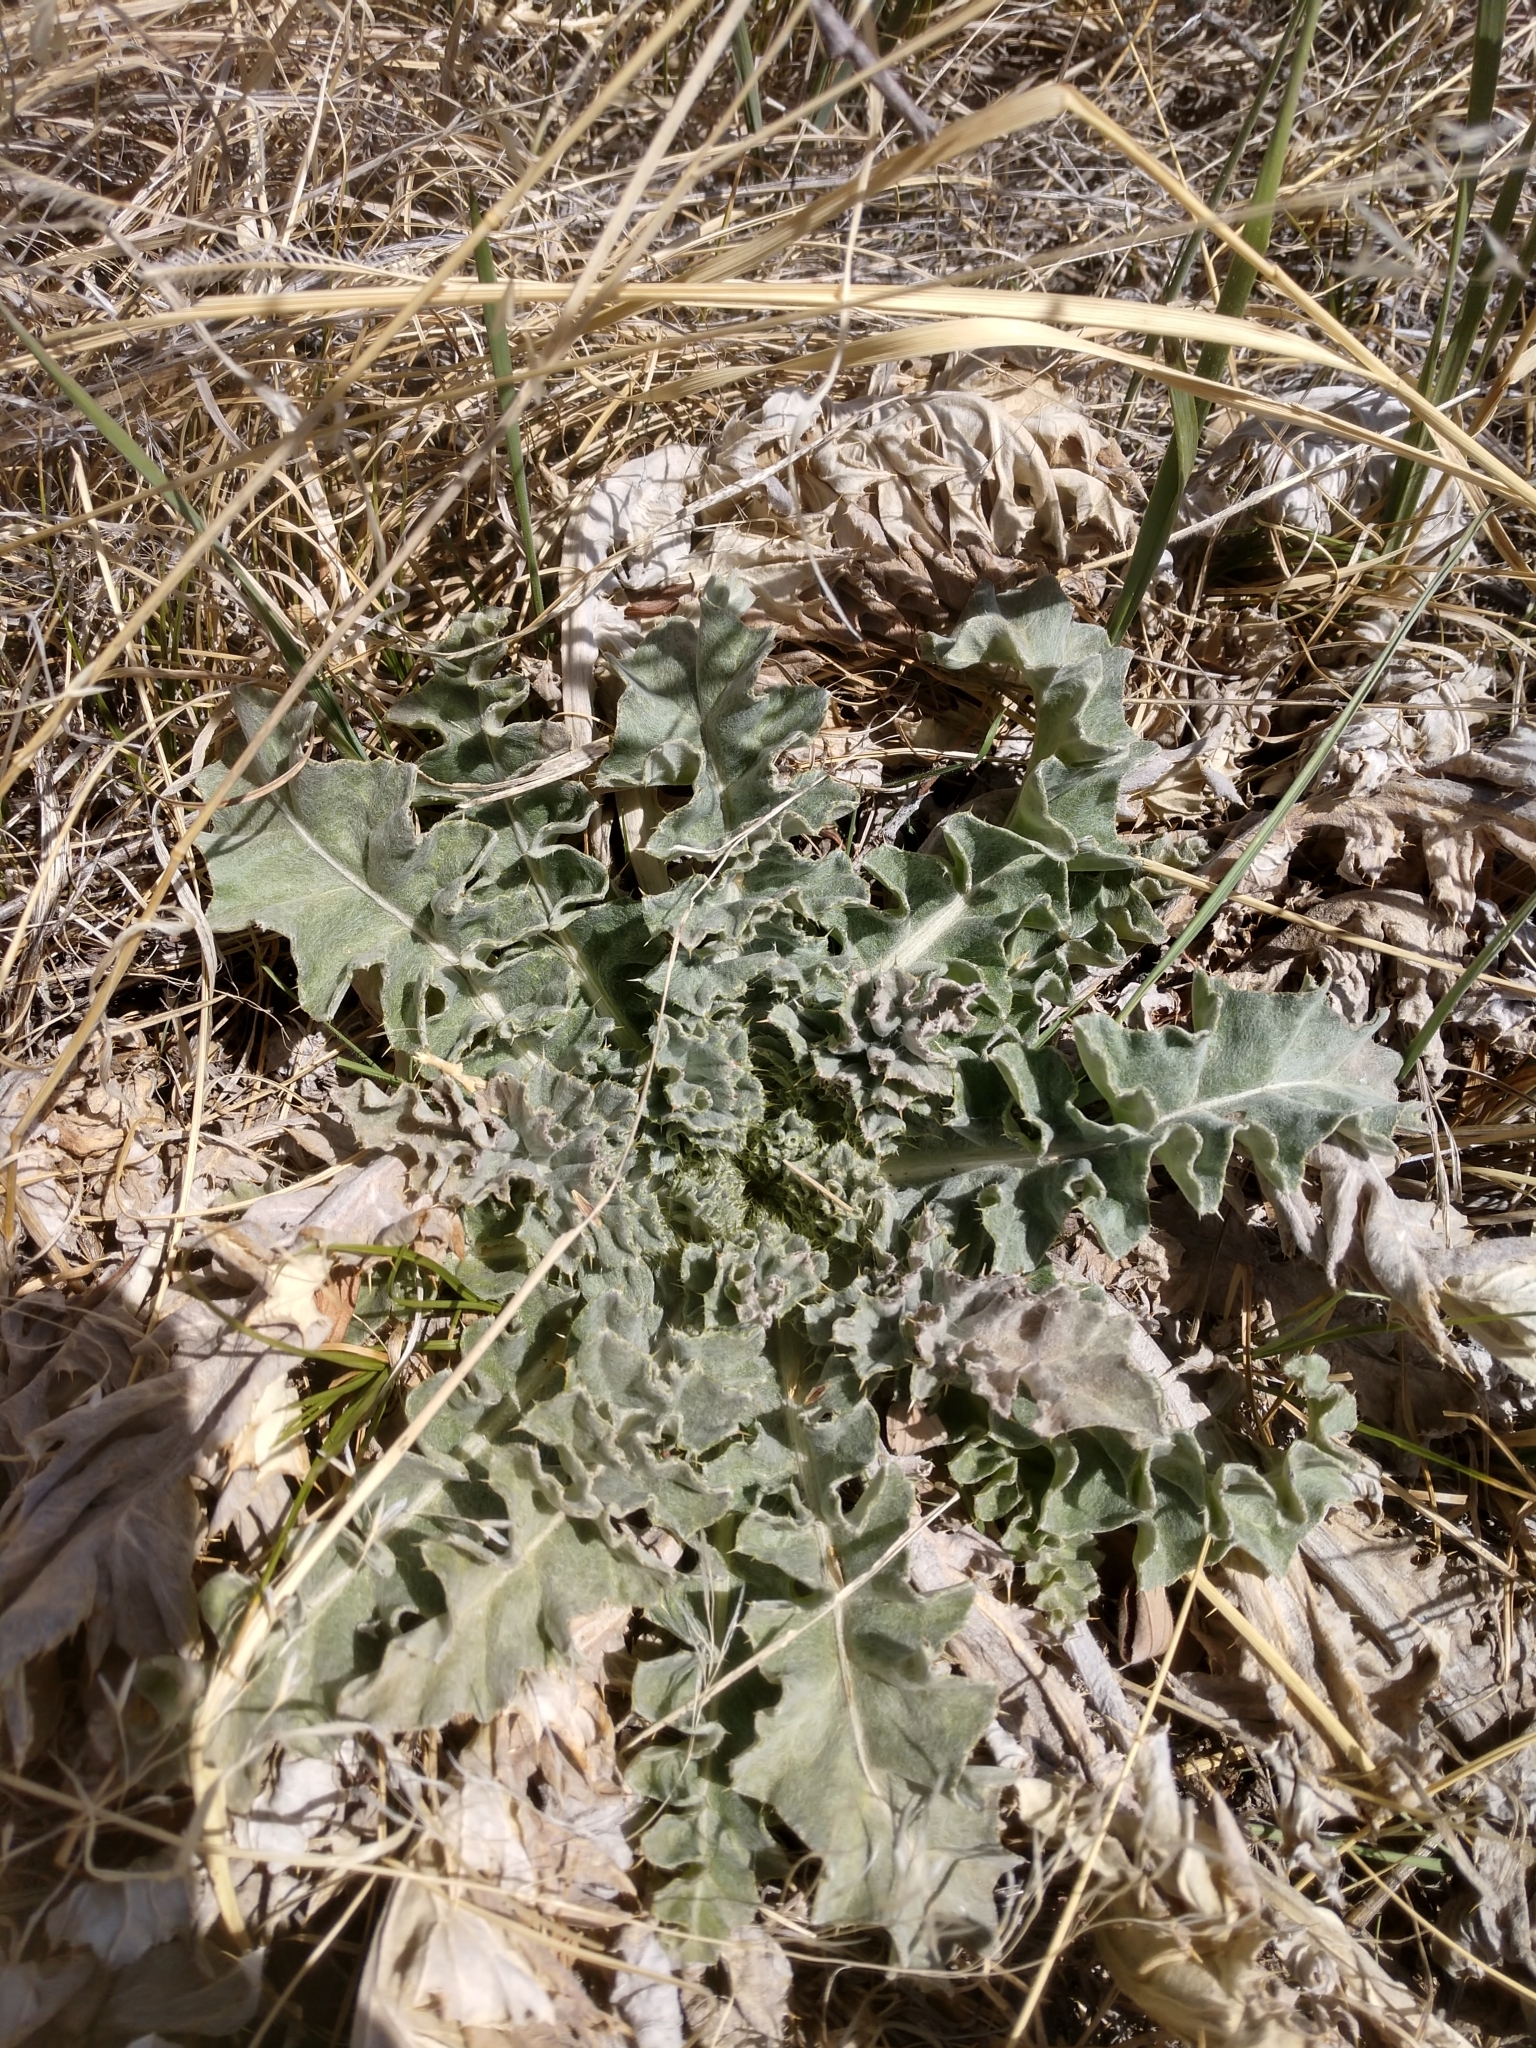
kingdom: Plantae
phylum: Tracheophyta
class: Magnoliopsida
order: Asterales
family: Asteraceae
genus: Cirsium
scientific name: Cirsium undulatum
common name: Pasture thistle
